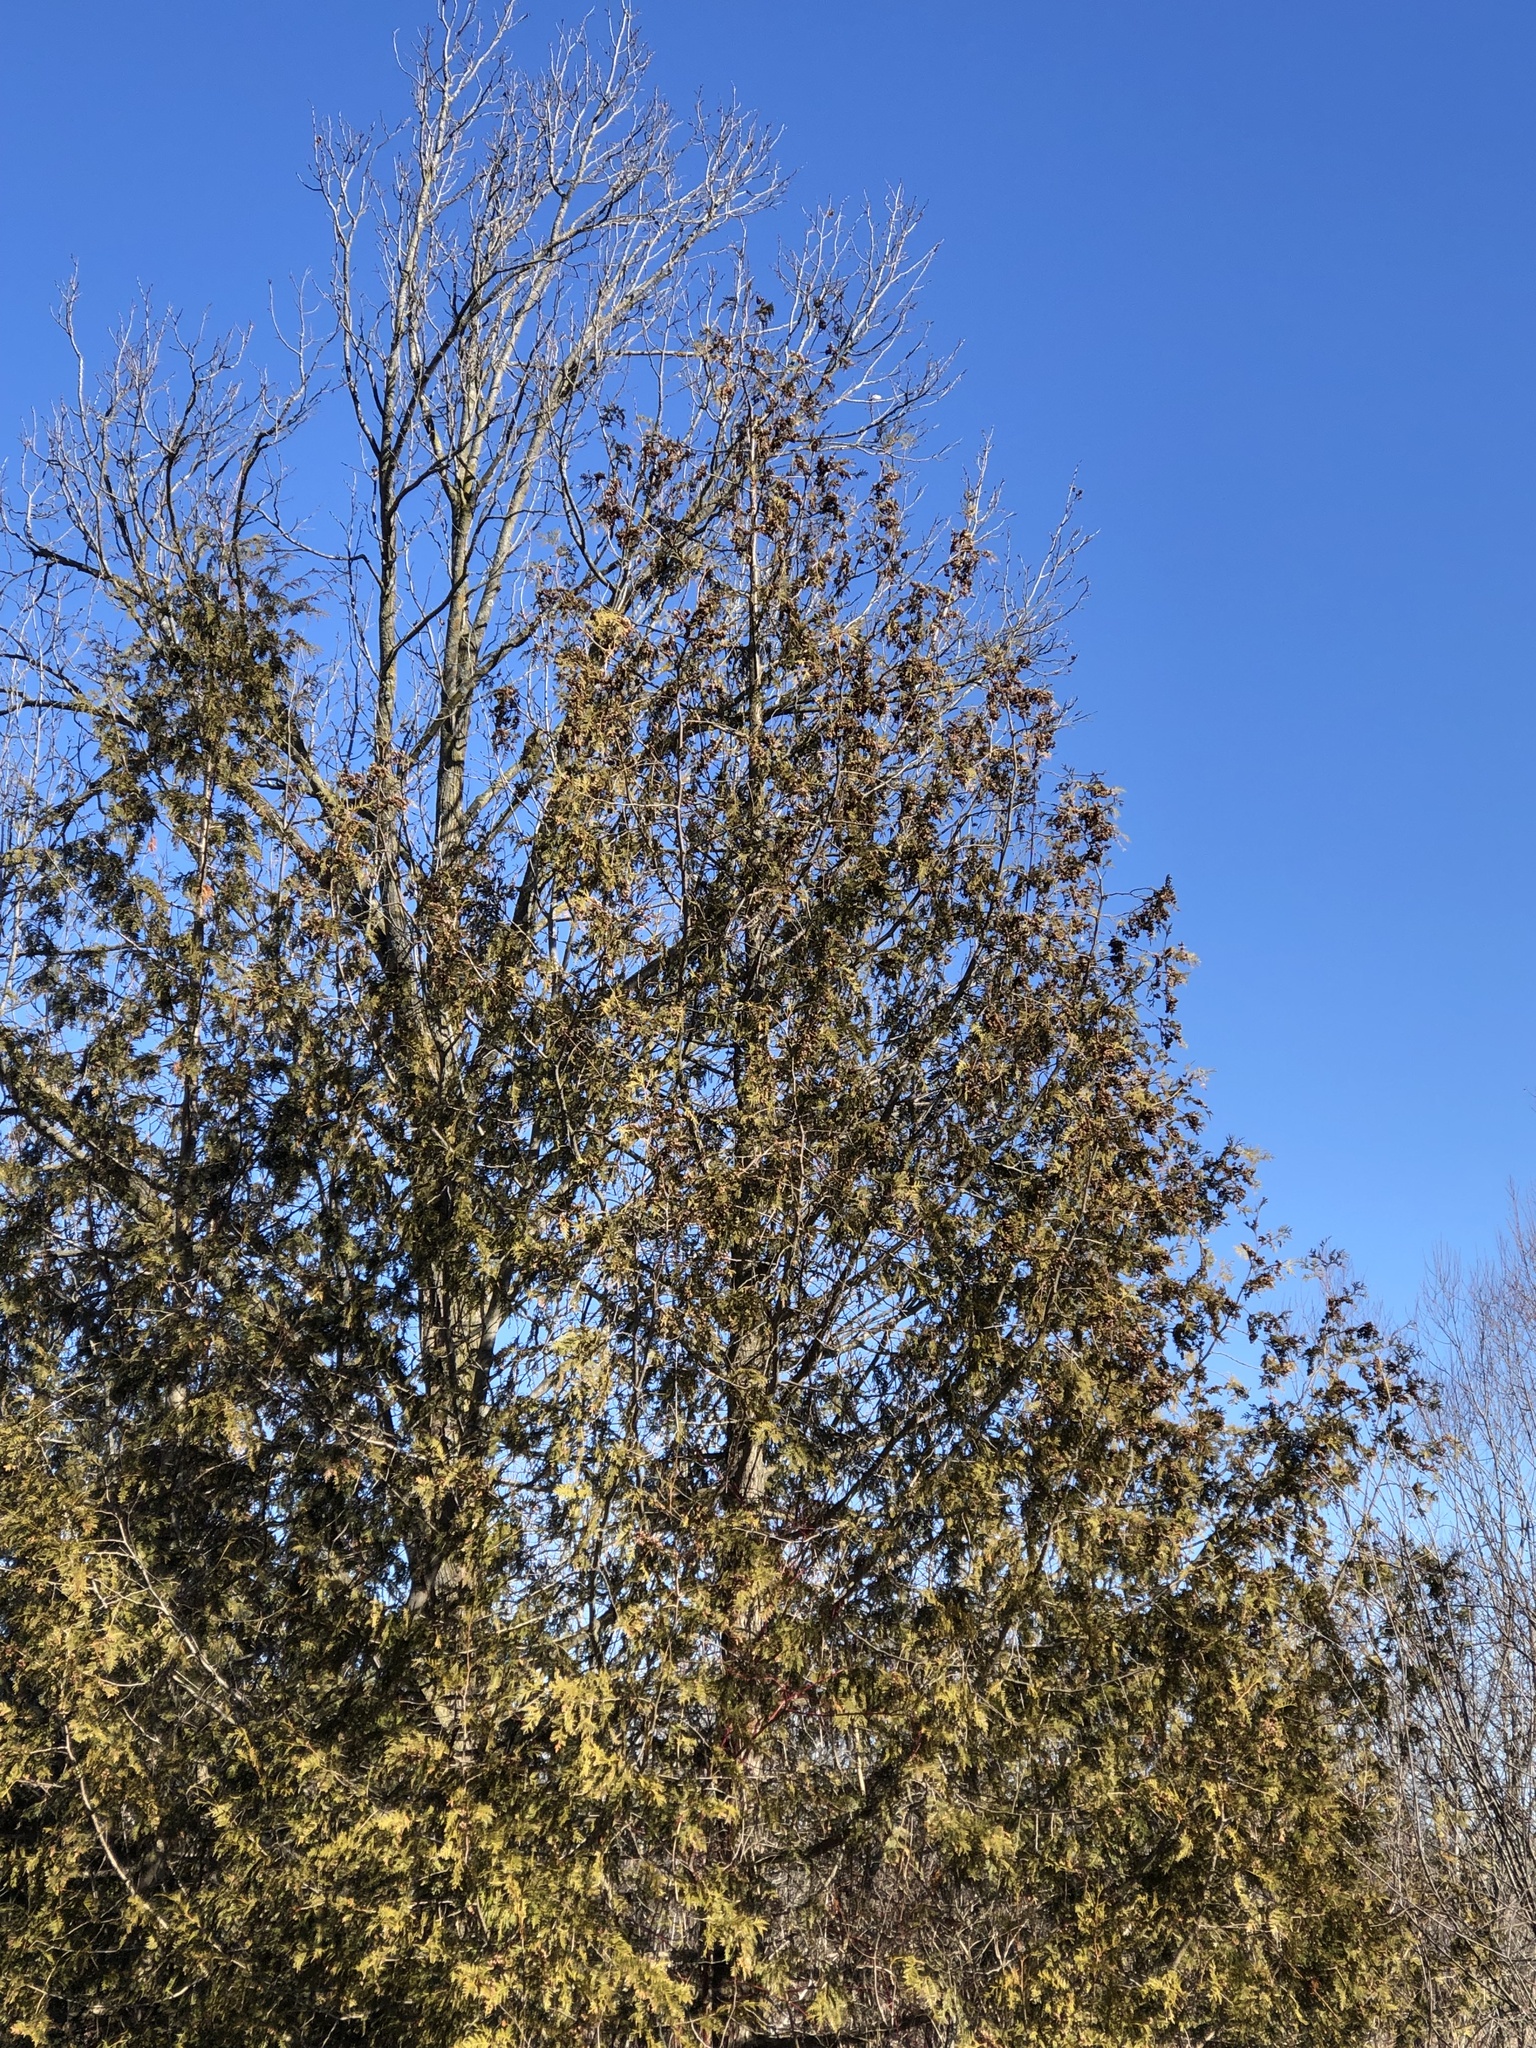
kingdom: Plantae
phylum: Tracheophyta
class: Pinopsida
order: Pinales
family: Cupressaceae
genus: Thuja
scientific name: Thuja occidentalis
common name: Northern white-cedar
